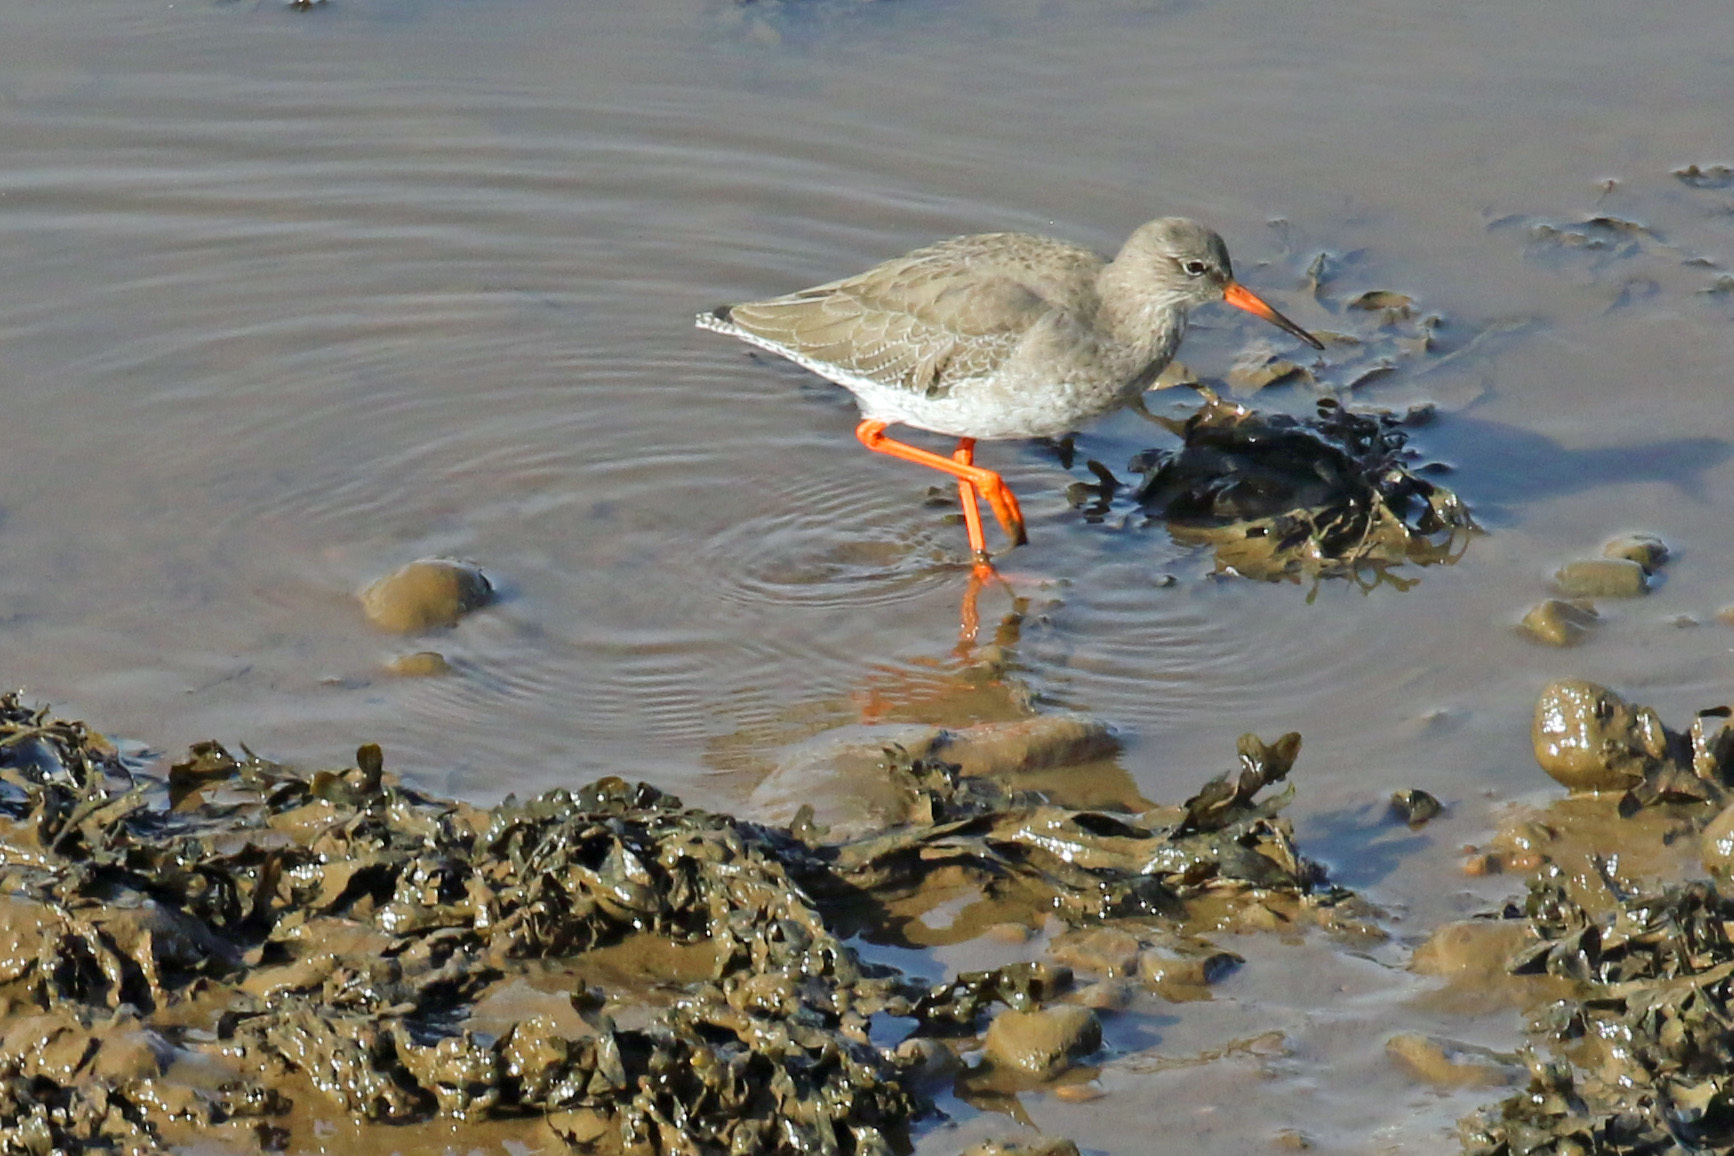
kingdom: Animalia
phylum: Chordata
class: Aves
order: Charadriiformes
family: Scolopacidae
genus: Tringa
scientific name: Tringa totanus
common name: Common redshank
